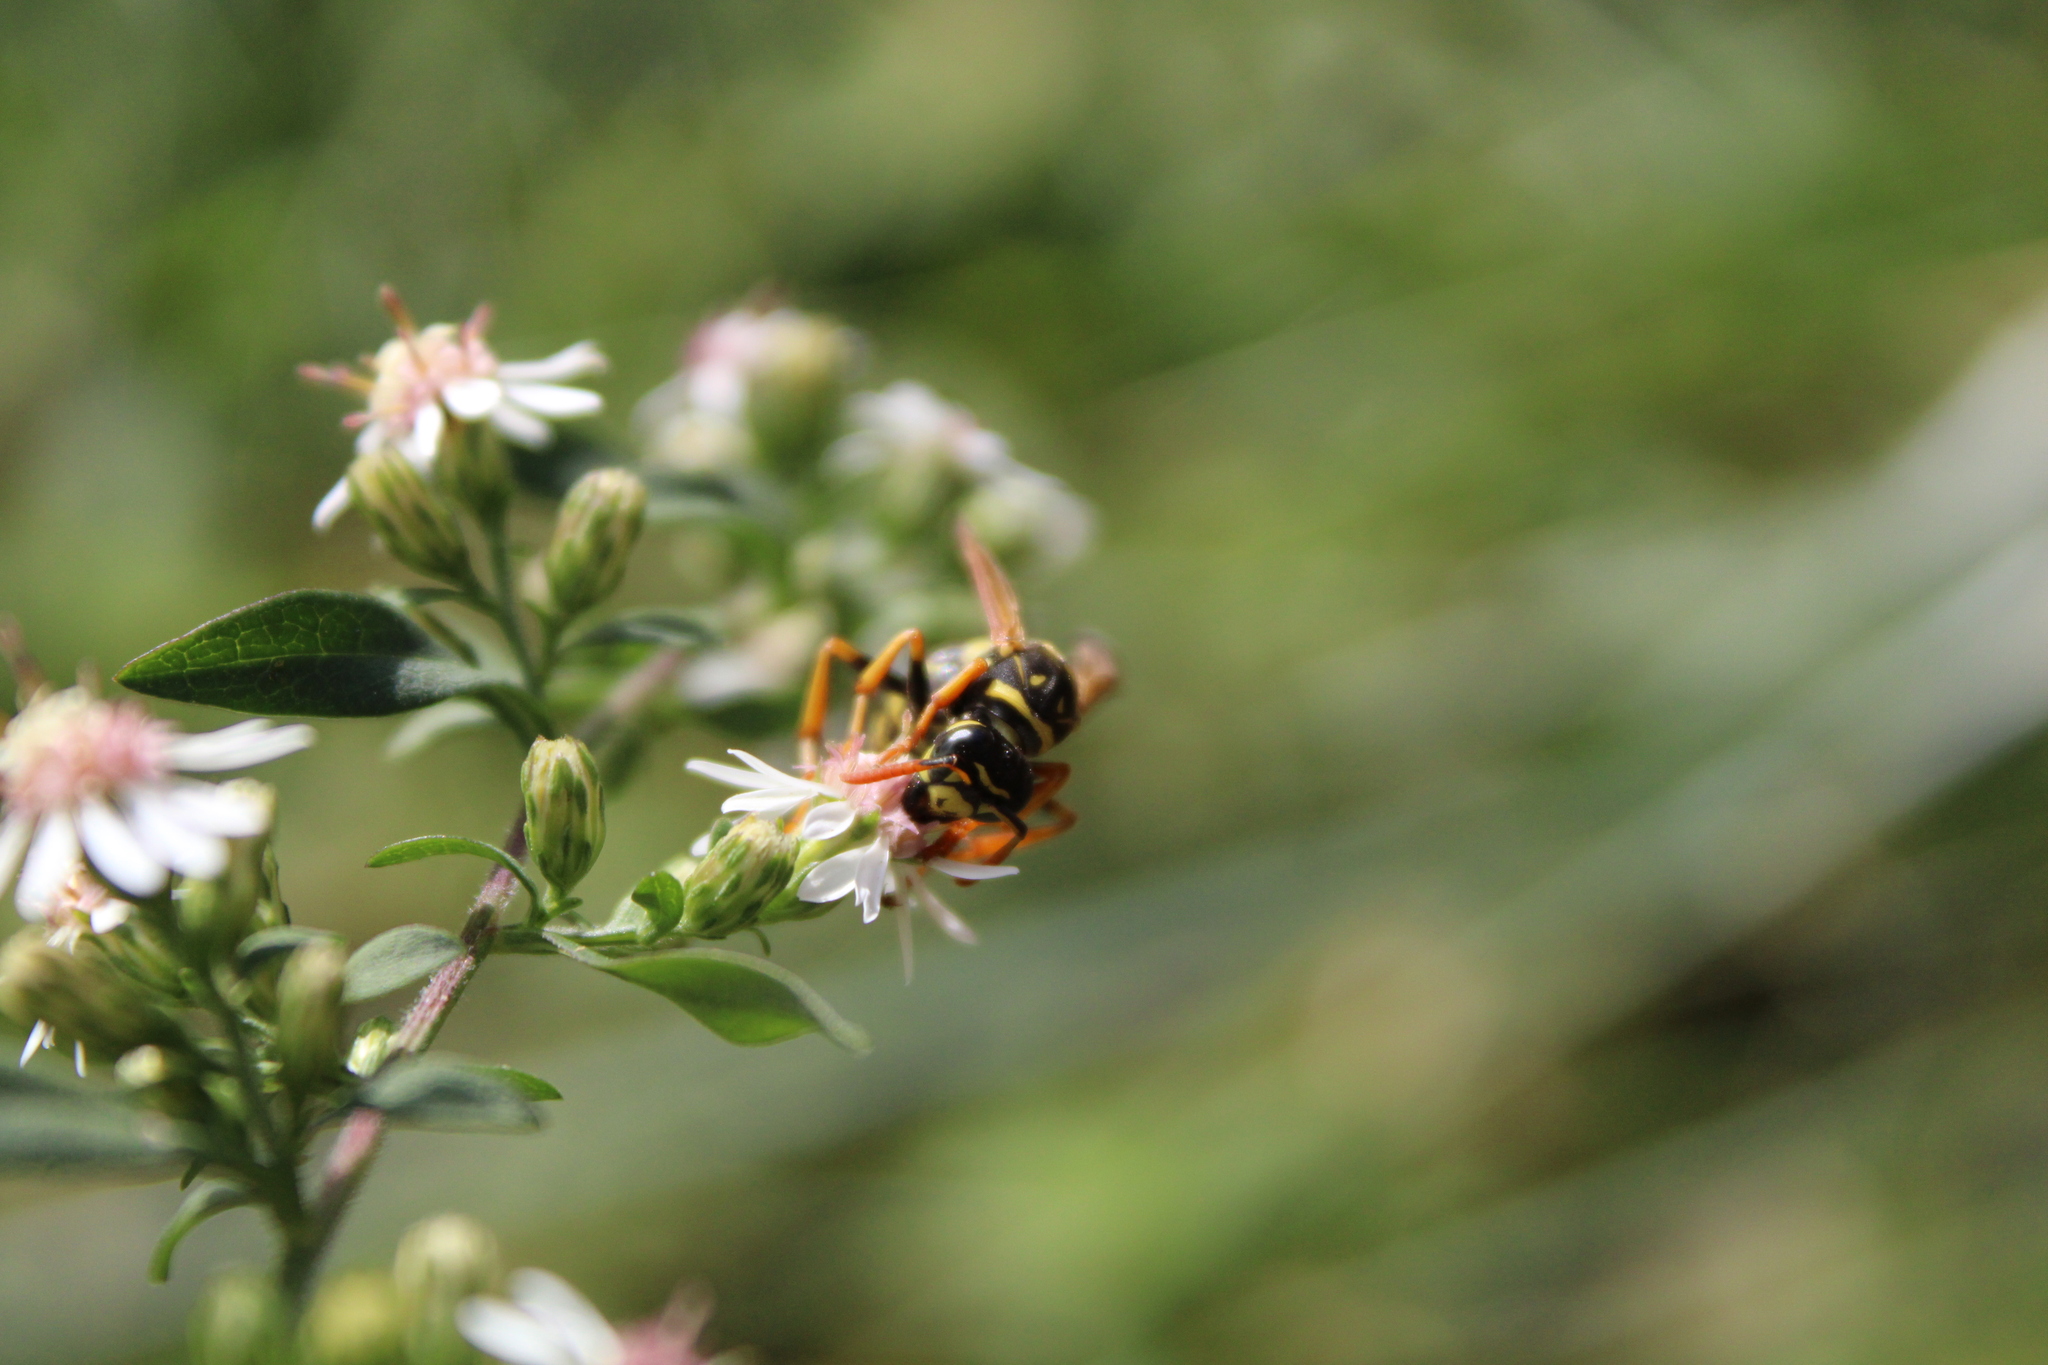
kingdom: Animalia
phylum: Arthropoda
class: Insecta
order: Hymenoptera
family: Eumenidae
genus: Polistes
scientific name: Polistes dominula
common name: Paper wasp
